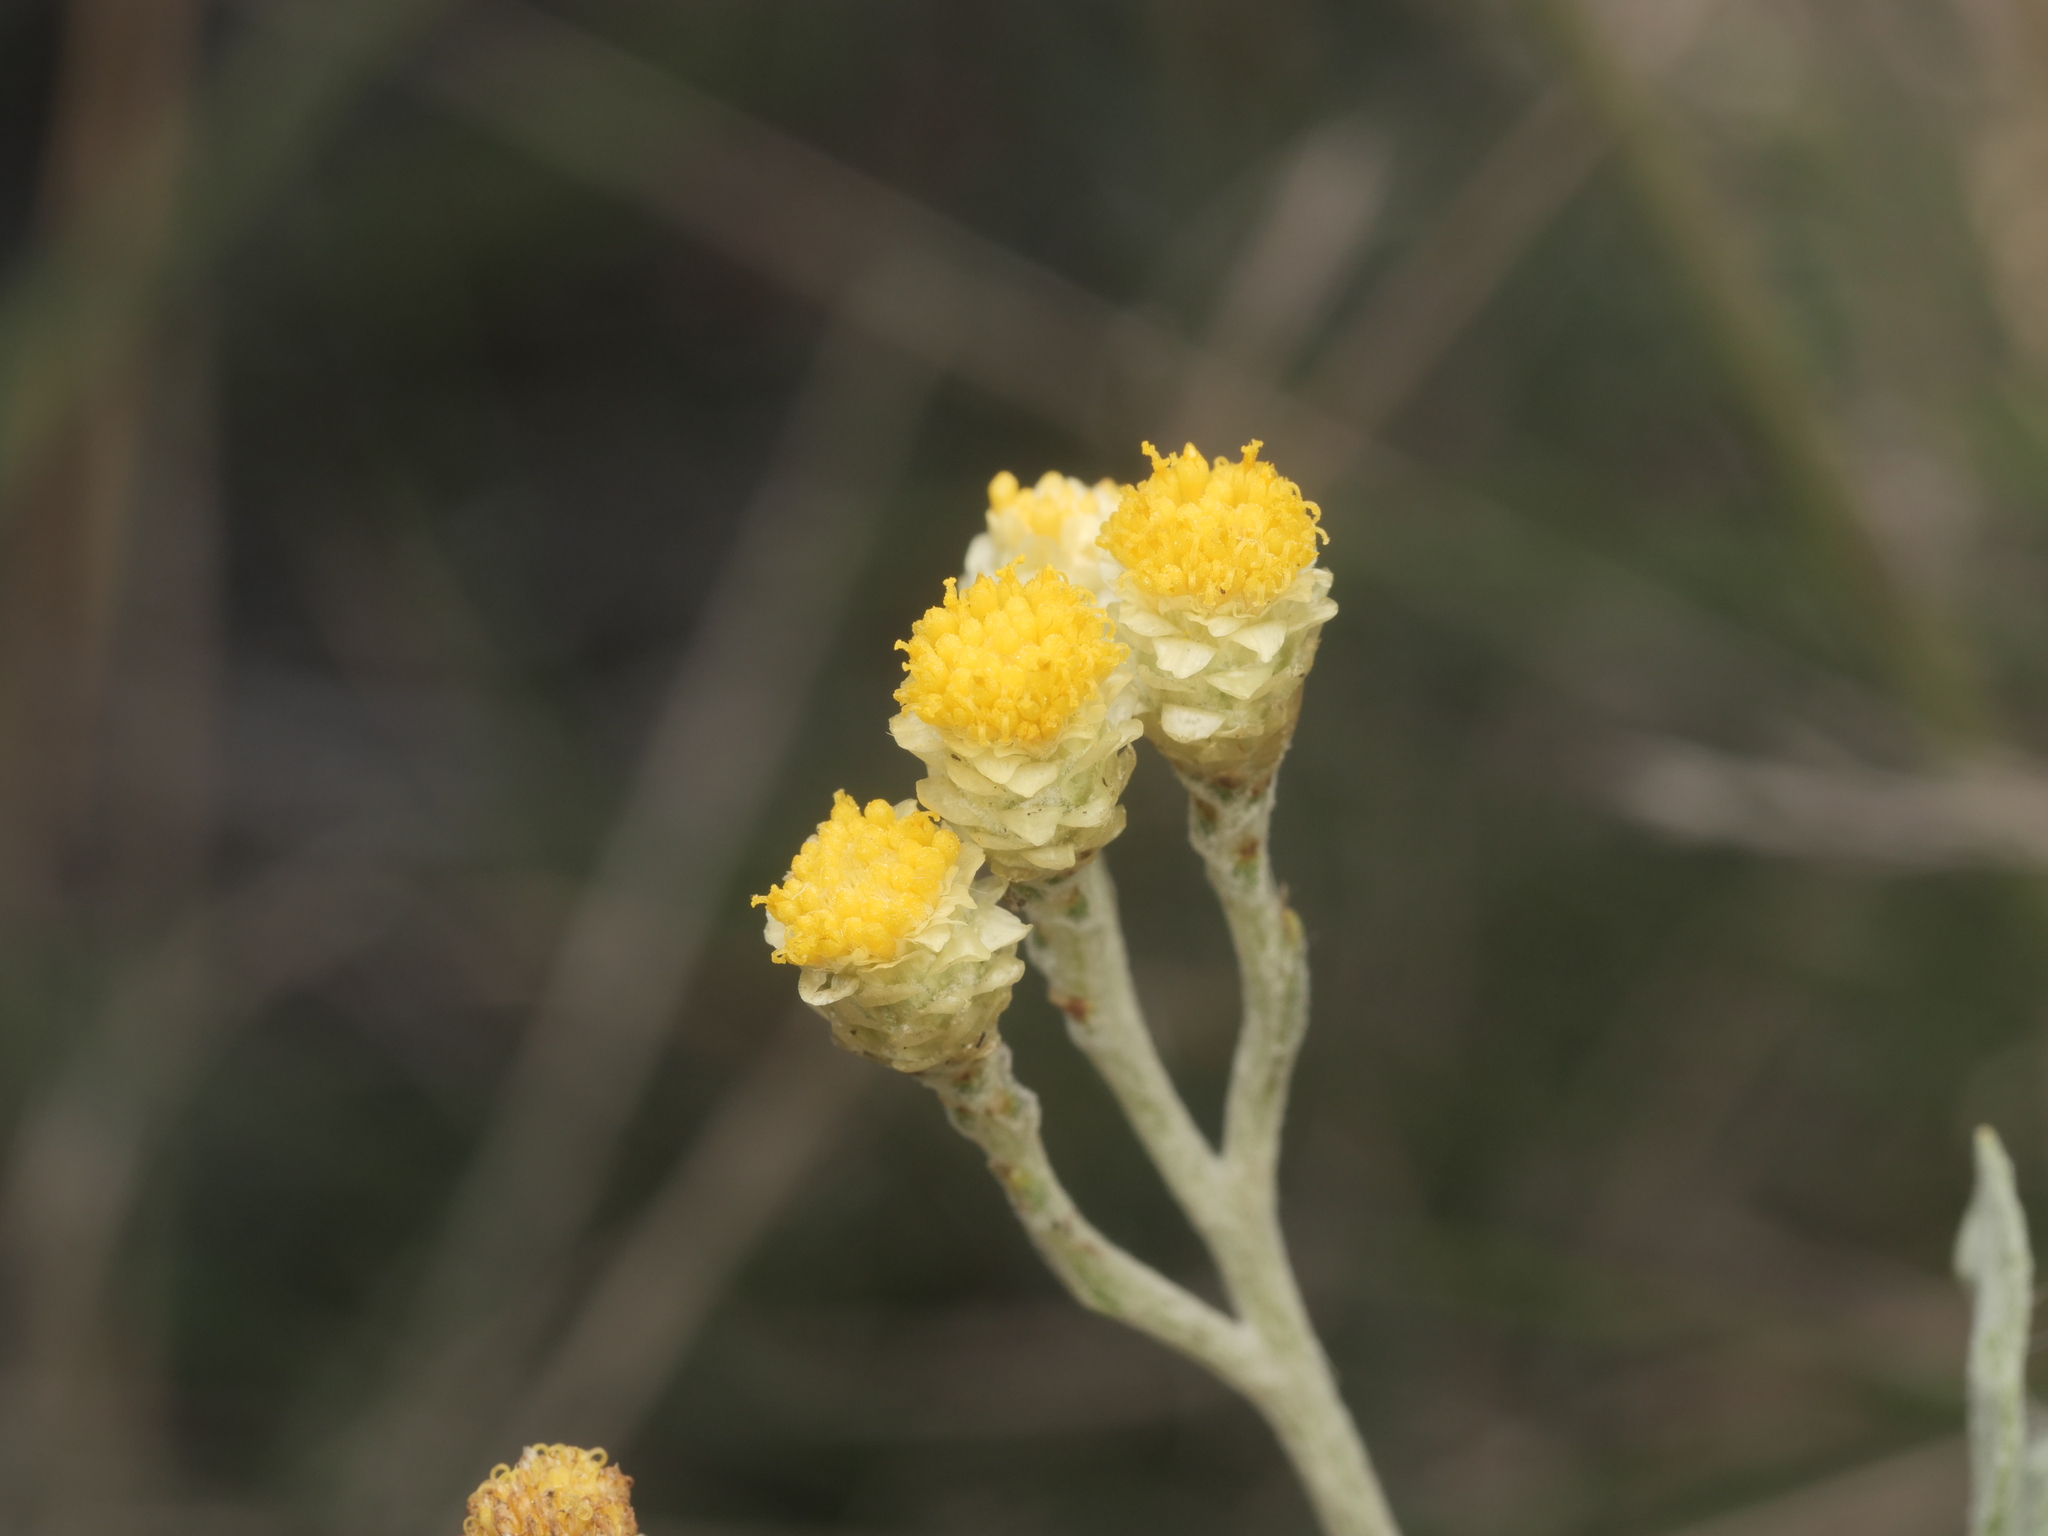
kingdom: Plantae
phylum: Tracheophyta
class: Magnoliopsida
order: Asterales
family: Asteraceae
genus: Helichrysum
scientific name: Helichrysum arenarium
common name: Strawflower
